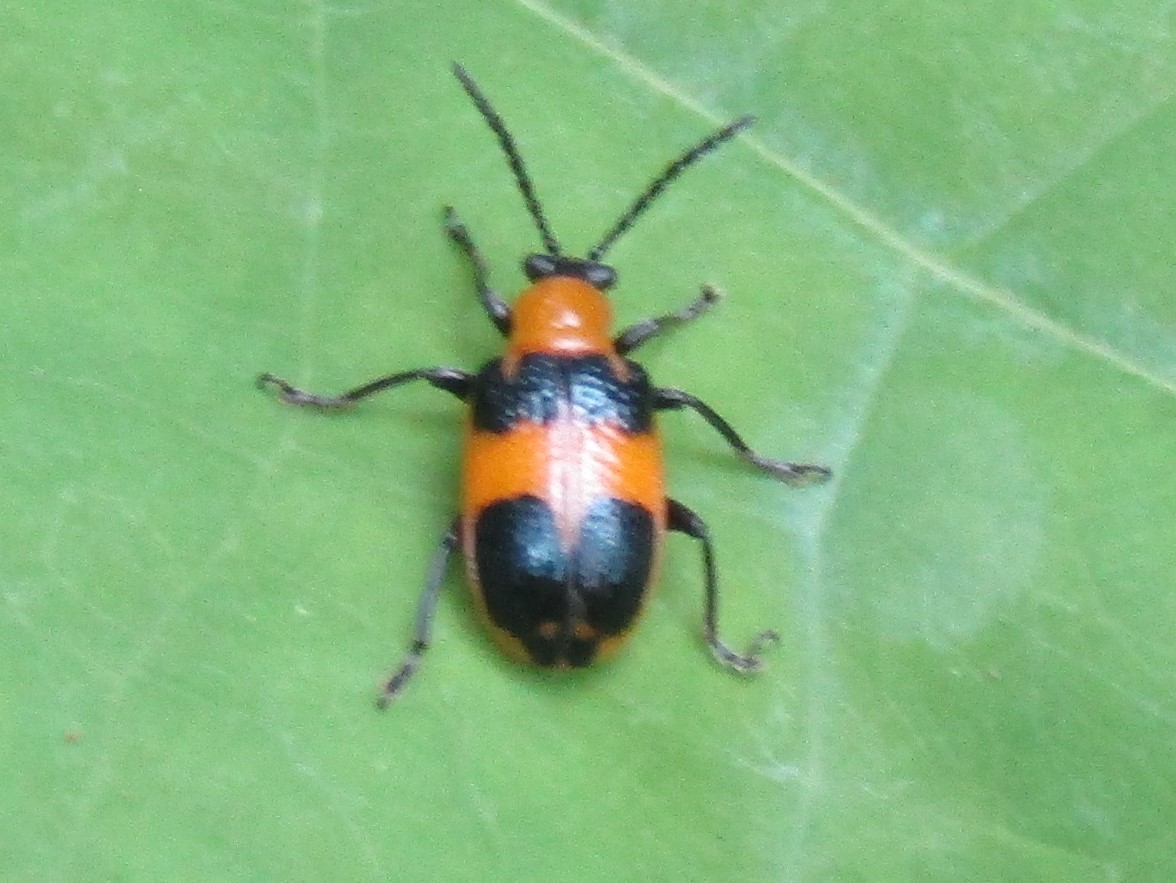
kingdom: Animalia
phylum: Arthropoda
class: Insecta
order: Coleoptera
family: Chrysomelidae
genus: Lema
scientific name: Lema solani
